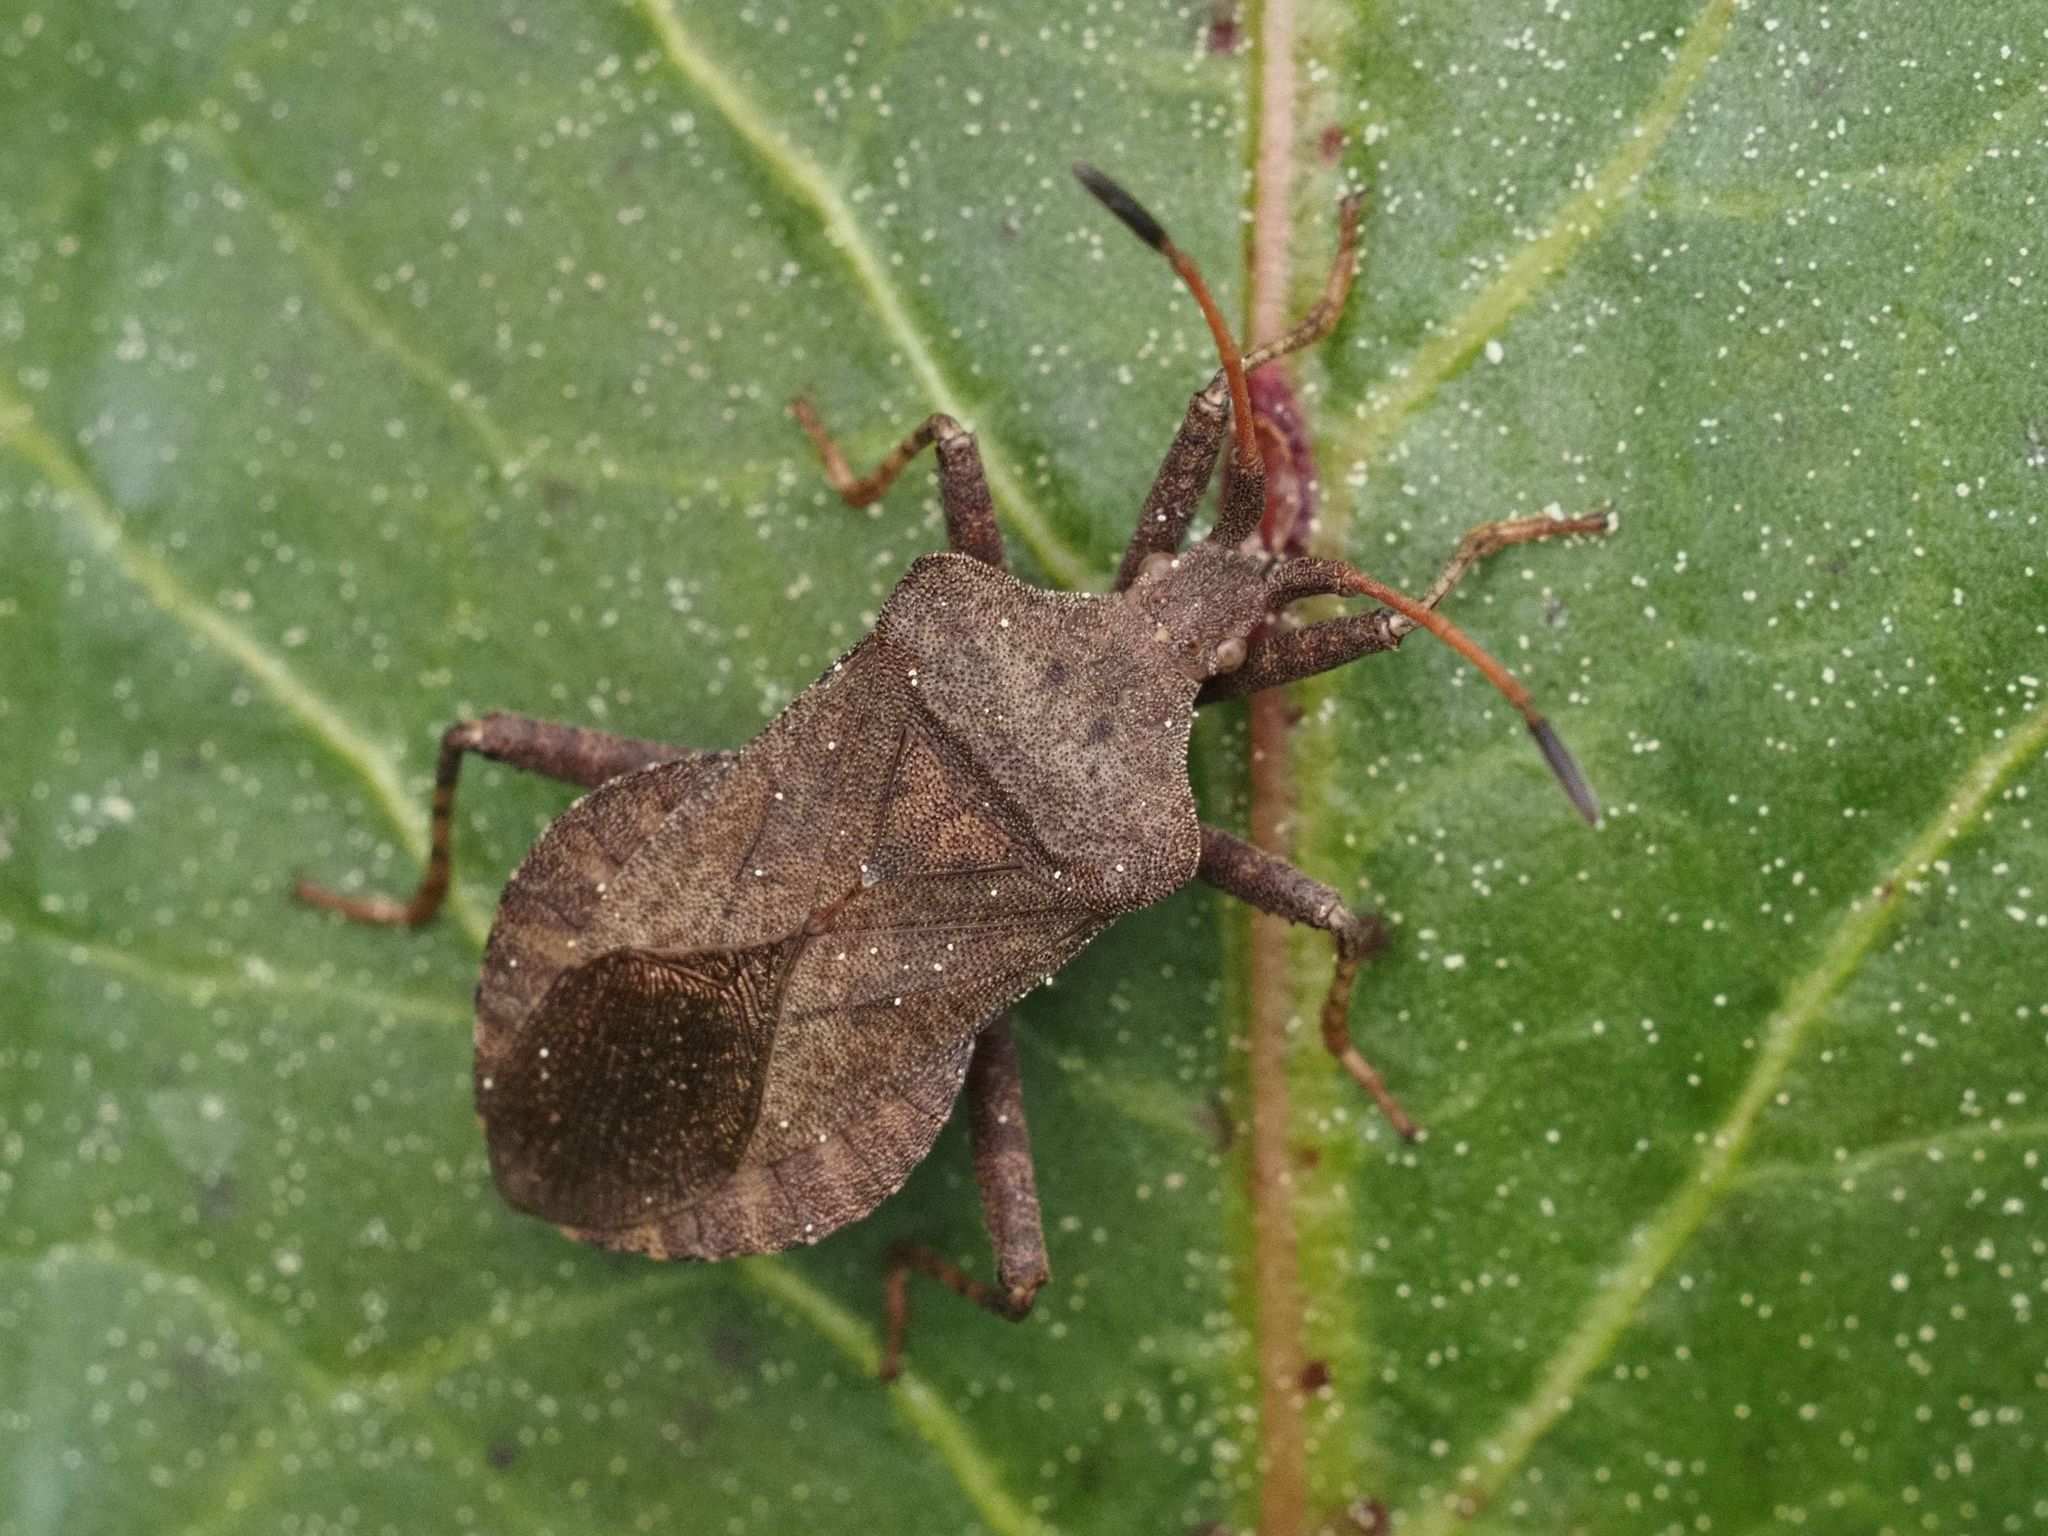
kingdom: Animalia
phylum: Arthropoda
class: Insecta
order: Hemiptera
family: Coreidae
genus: Coreus
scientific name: Coreus marginatus
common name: Dock bug
